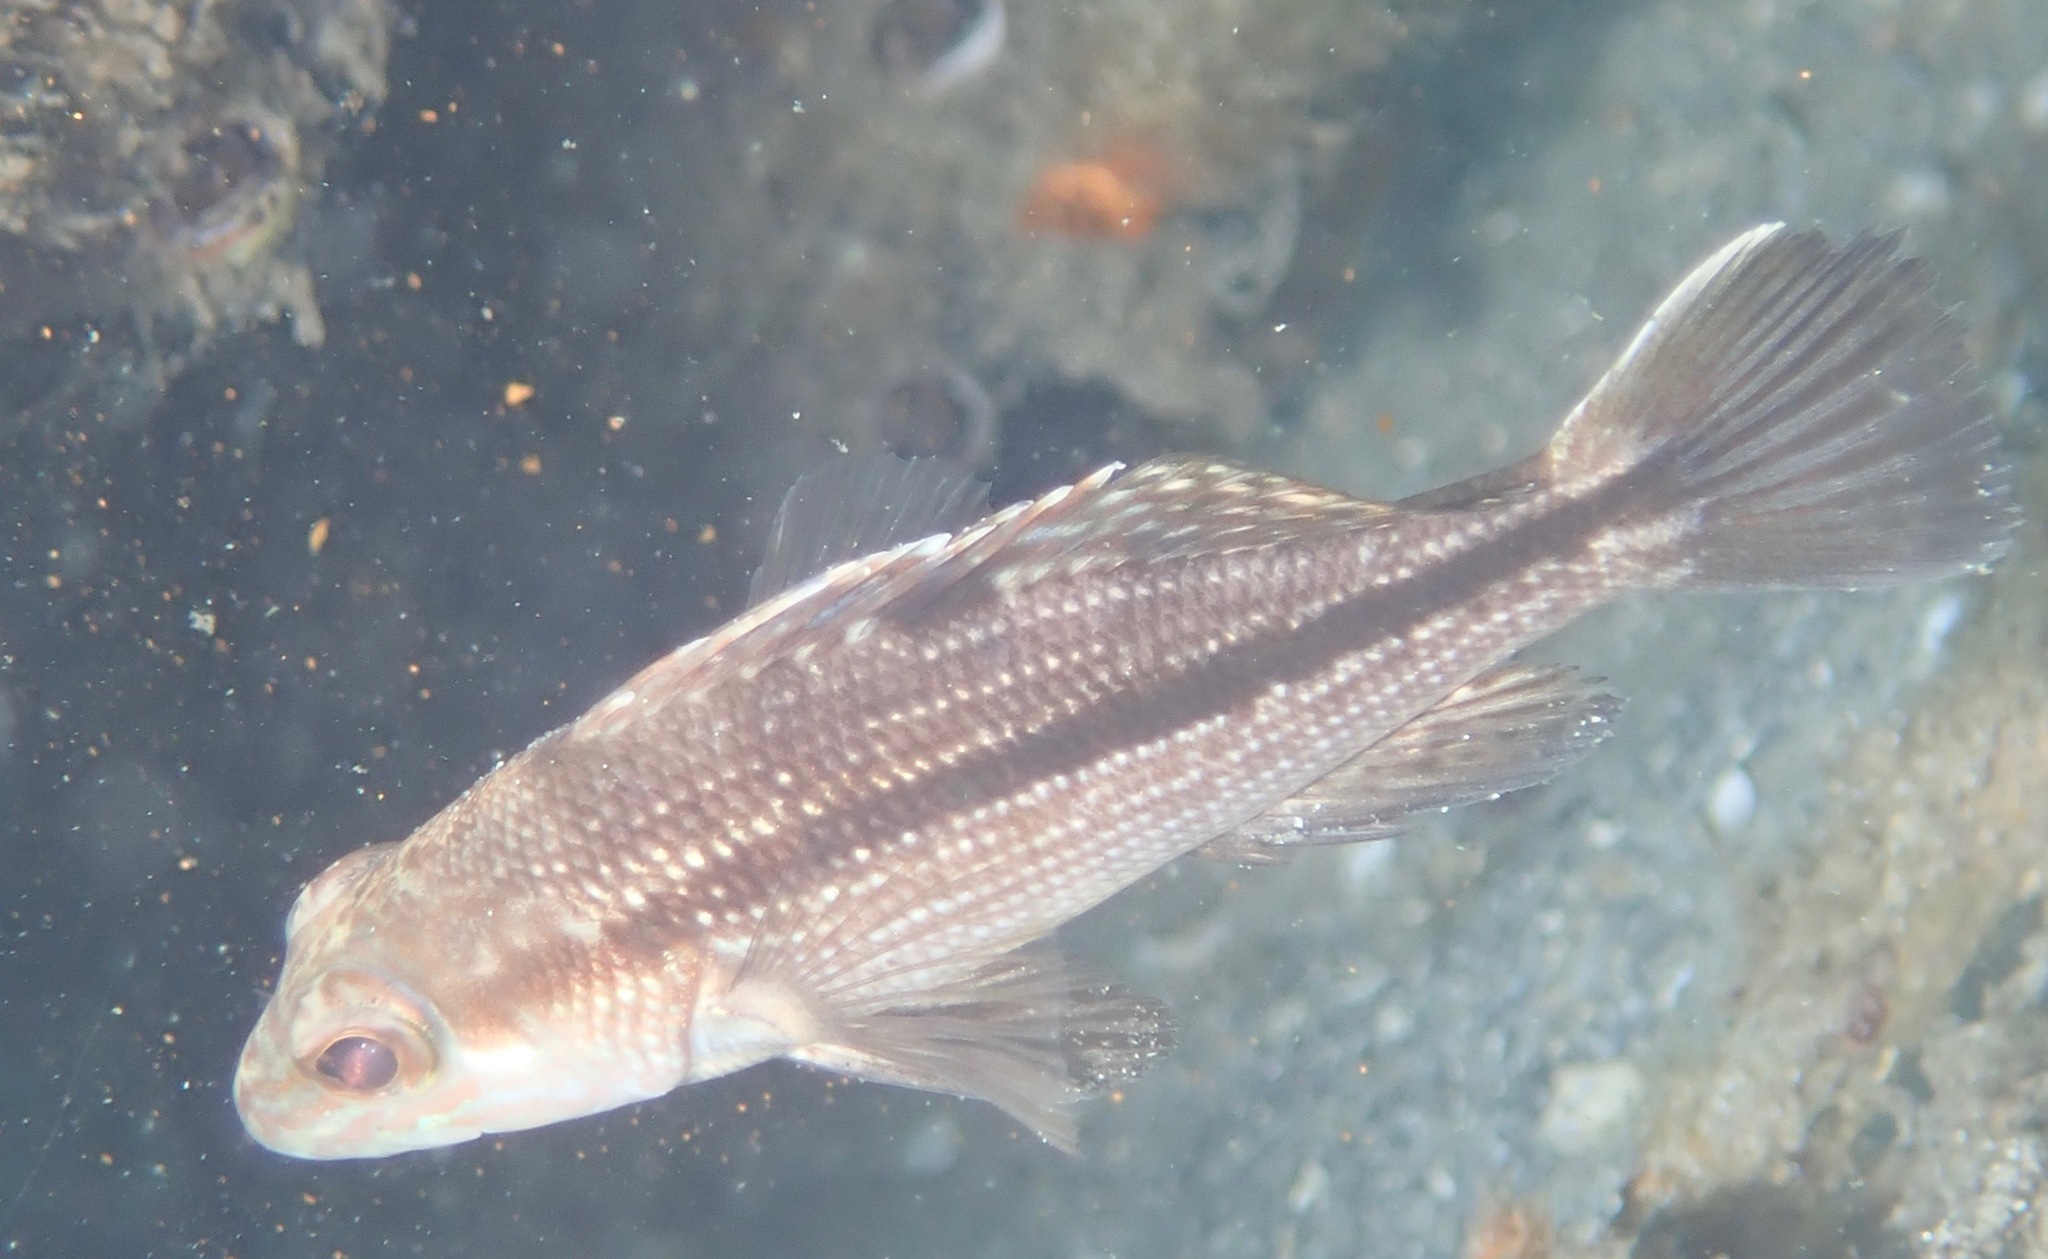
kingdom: Animalia
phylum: Chordata
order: Perciformes
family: Serranidae
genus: Centropristis
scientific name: Centropristis striata
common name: Black sea bass
